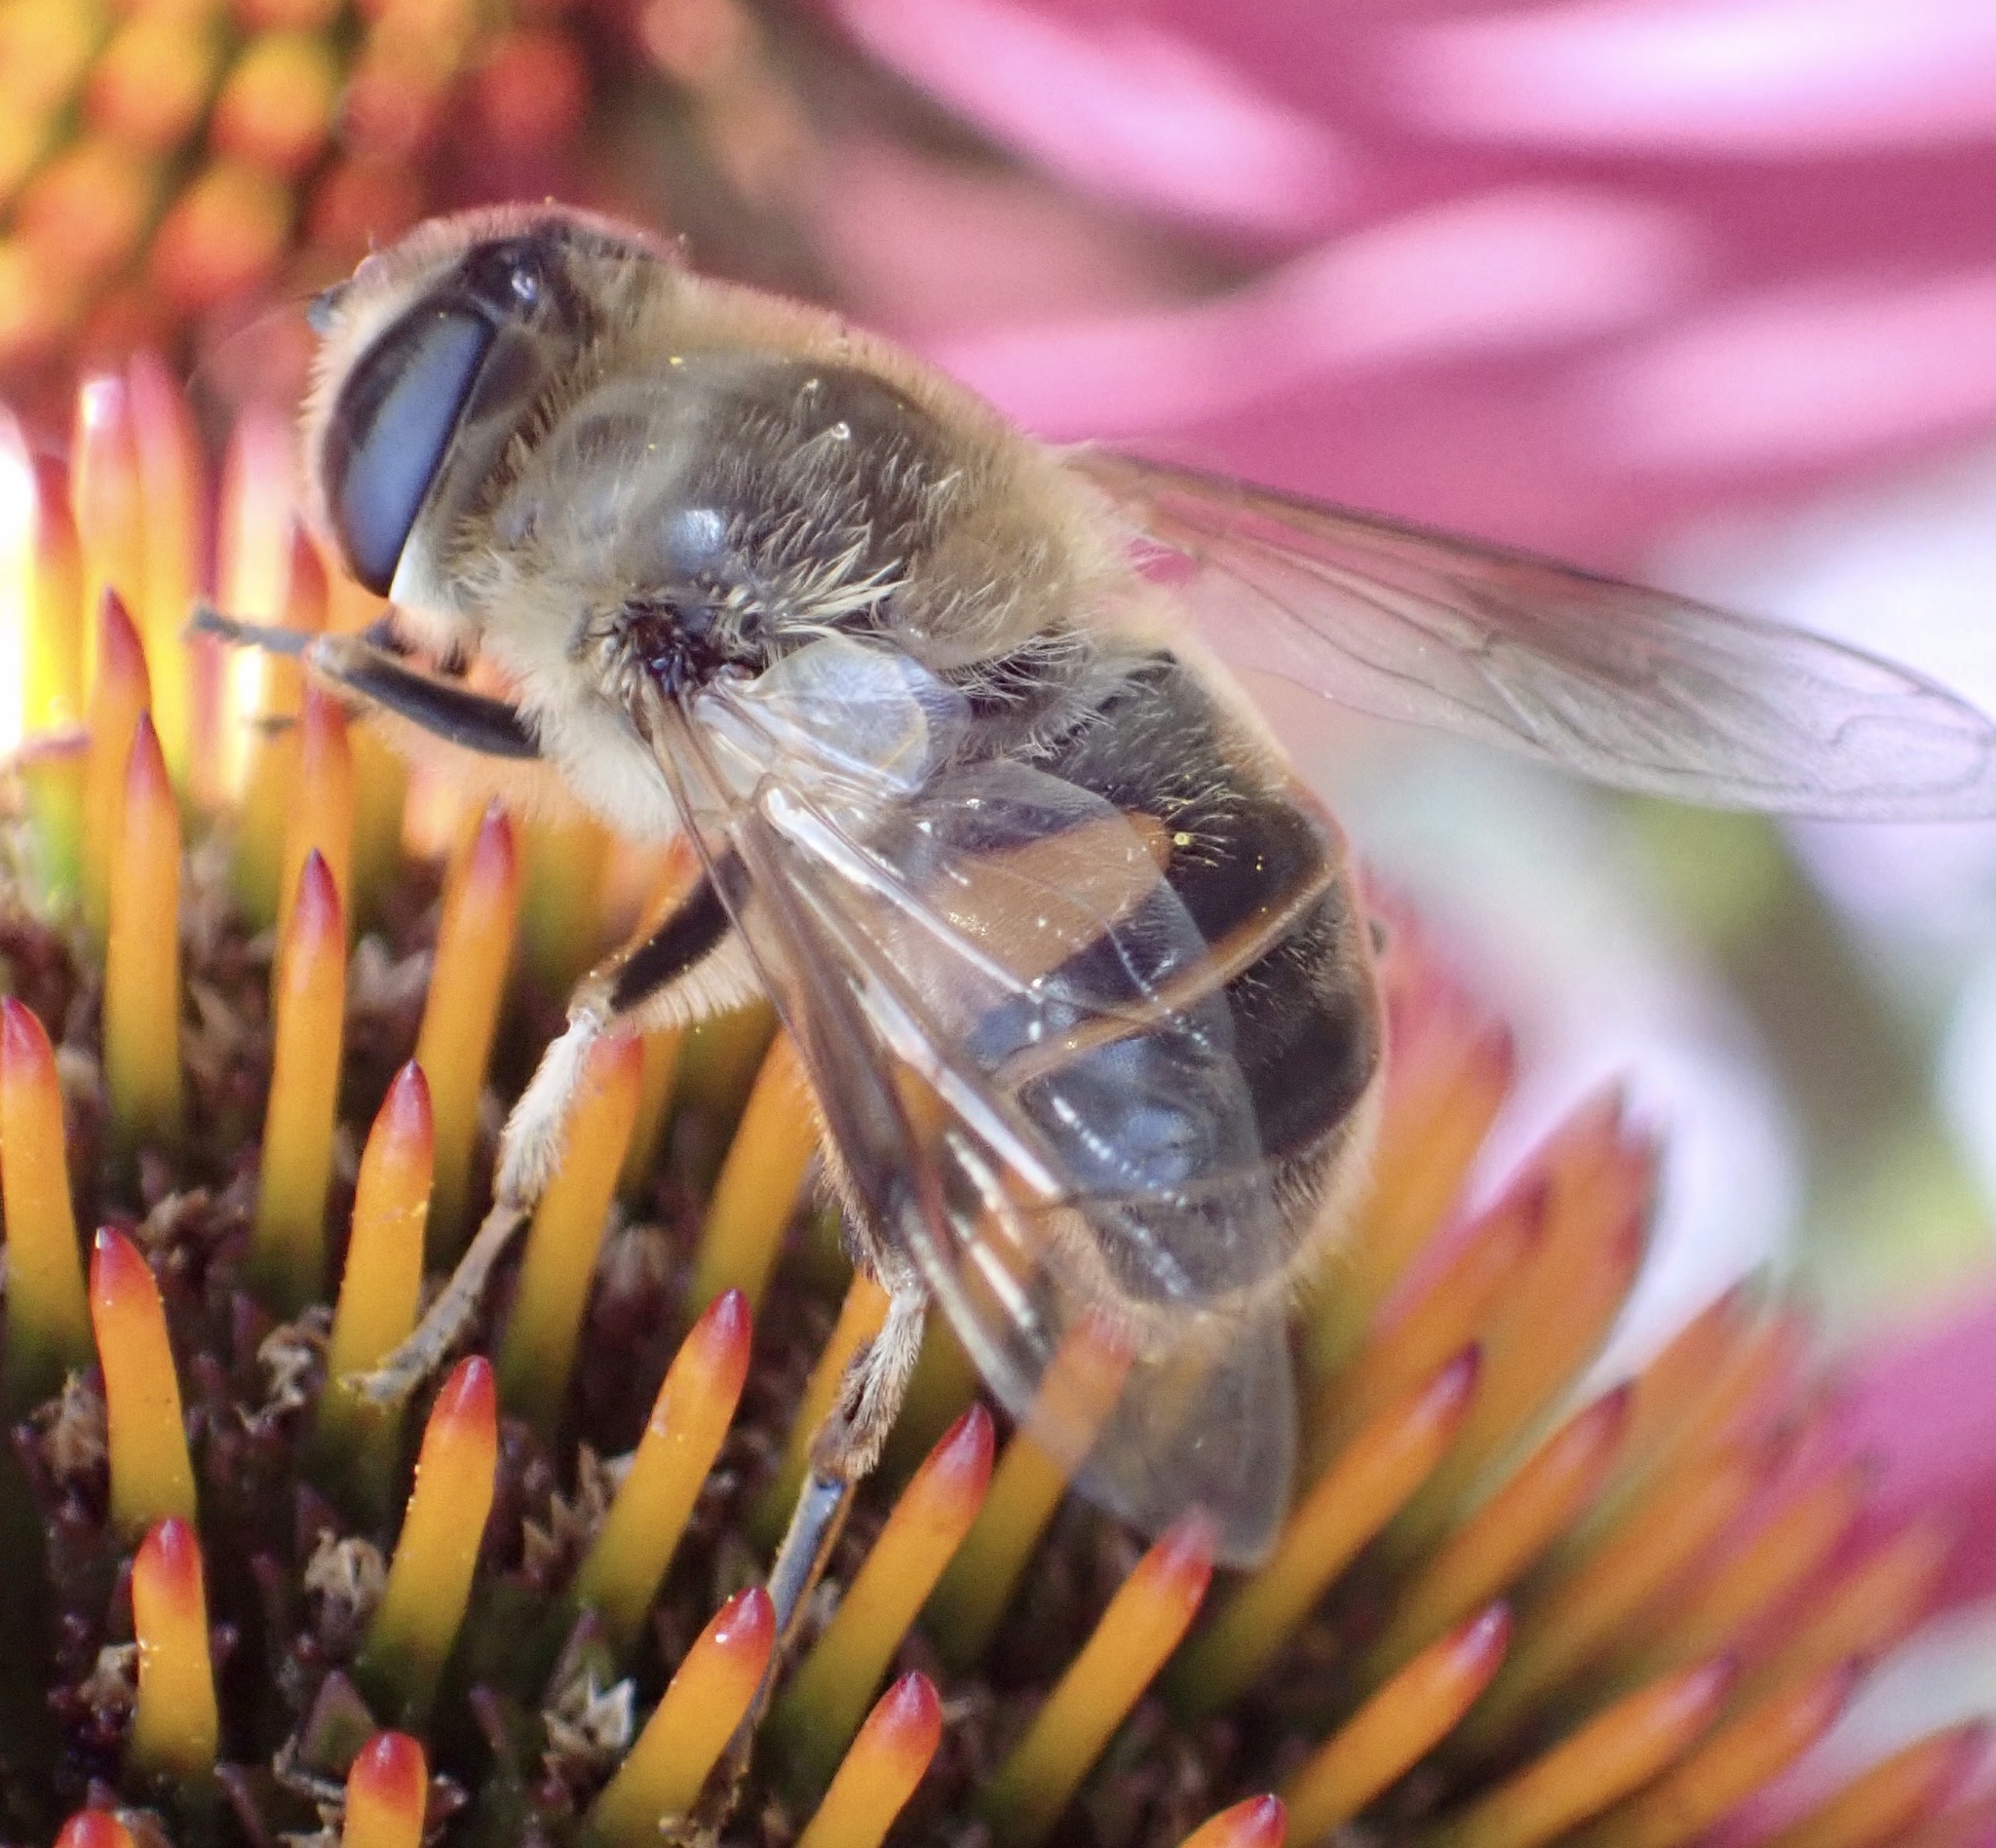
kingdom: Animalia
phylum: Arthropoda
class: Insecta
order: Diptera
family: Syrphidae
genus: Eristalis
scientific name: Eristalis tenax
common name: Drone fly
